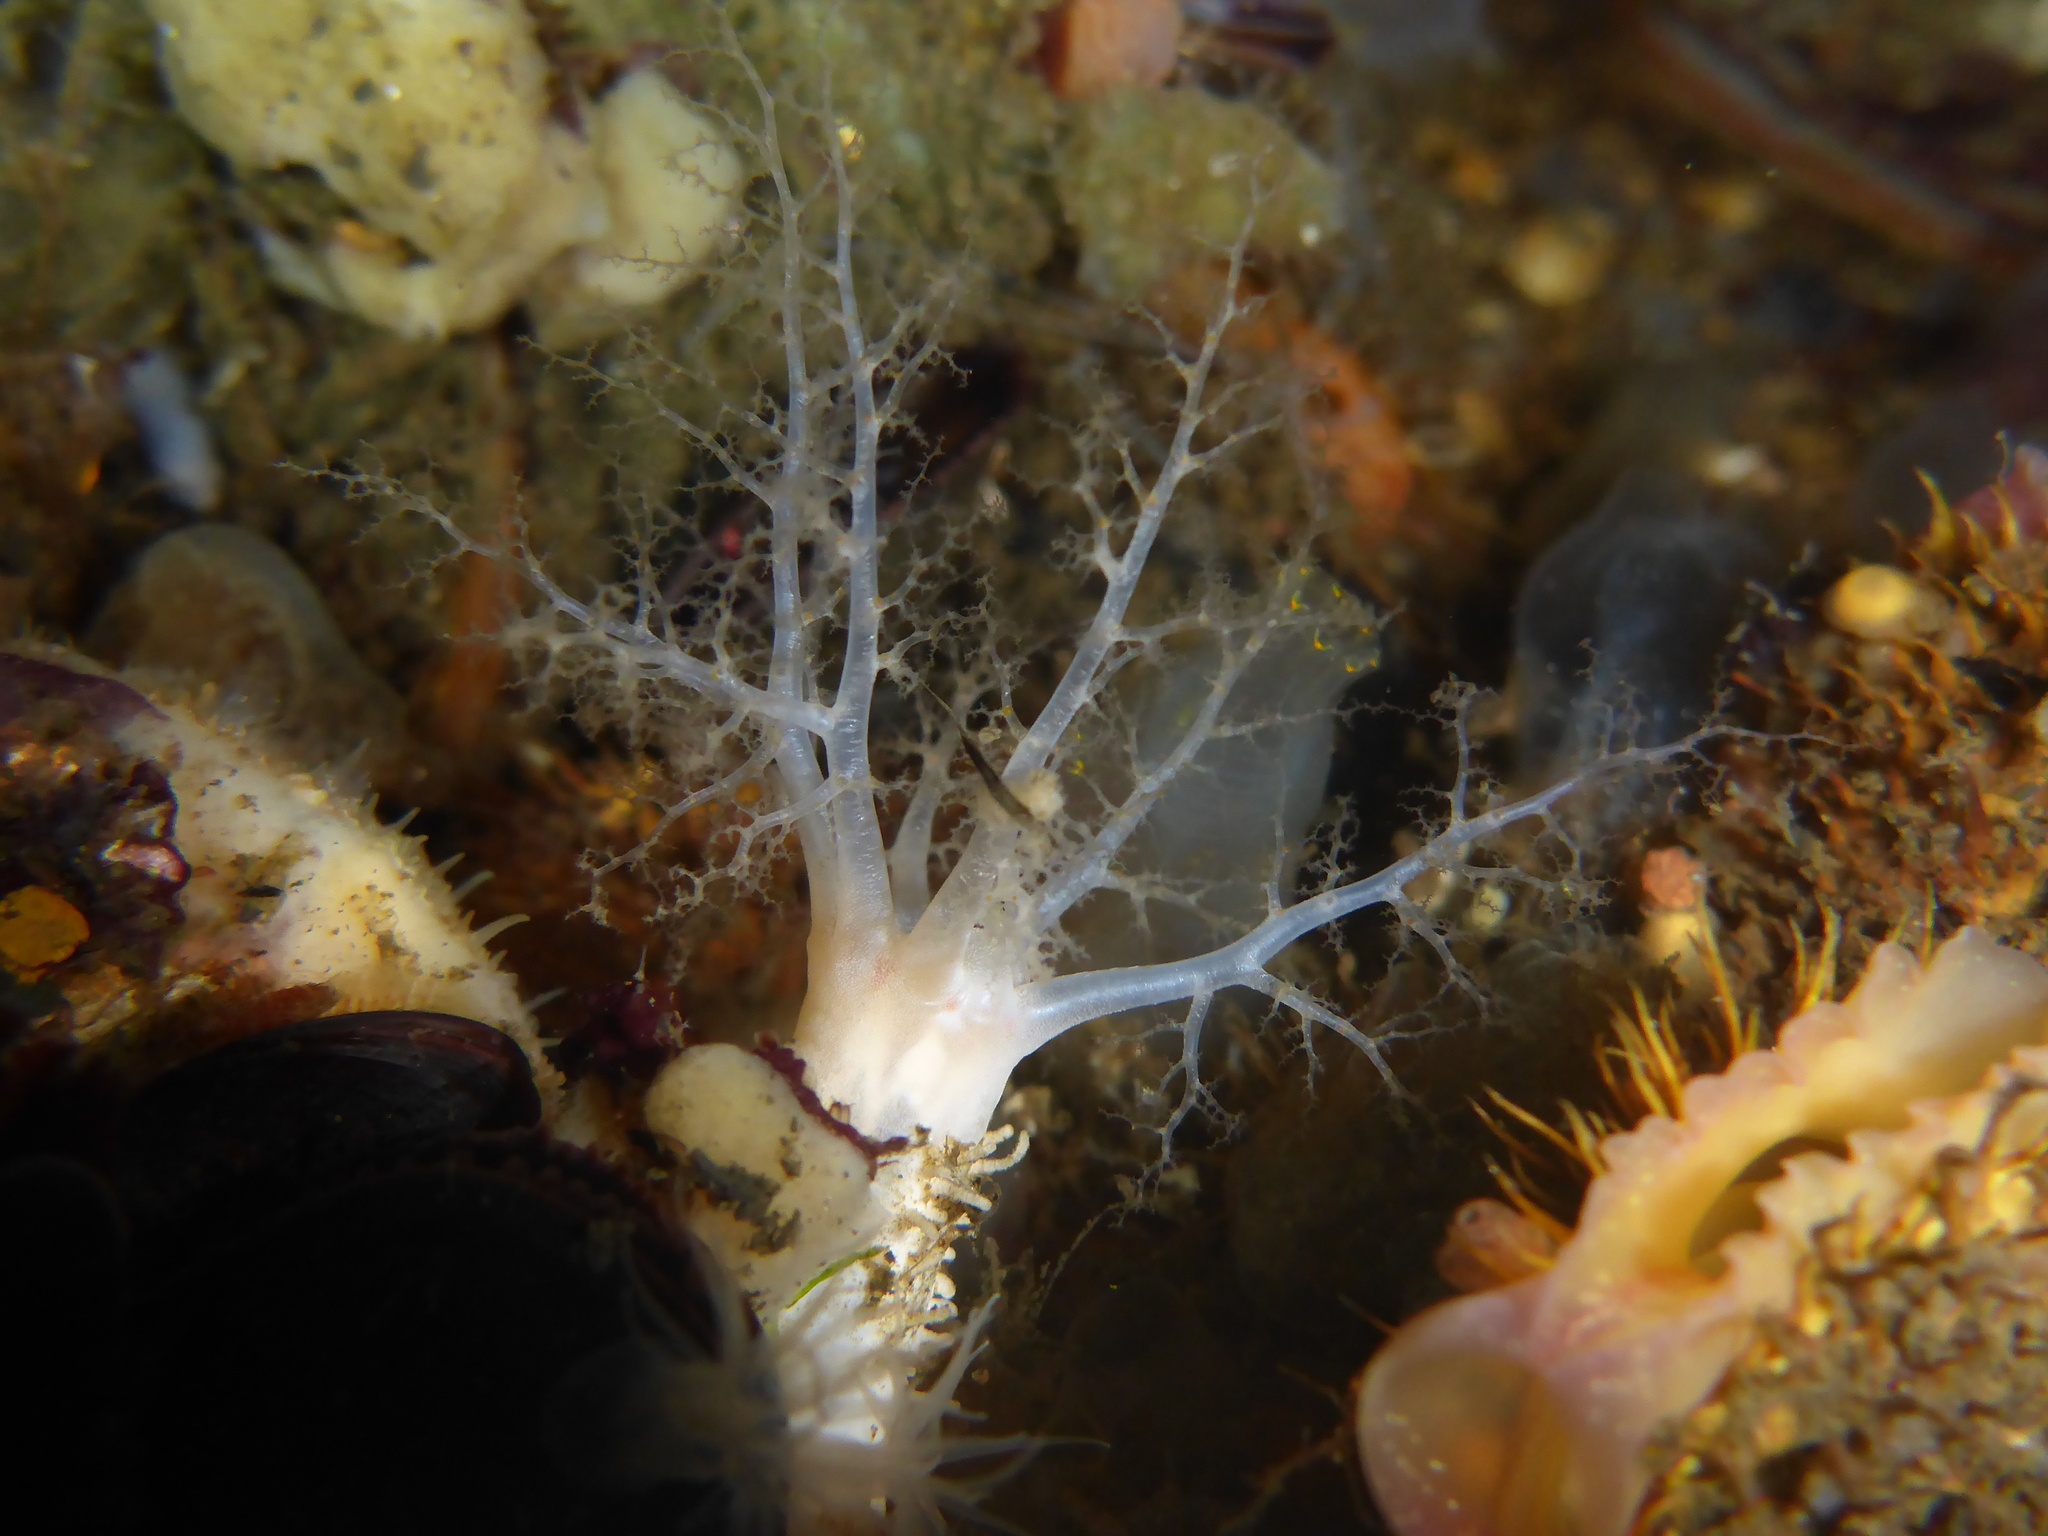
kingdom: Animalia
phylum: Echinodermata
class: Holothuroidea
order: Dendrochirotida
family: Sclerodactylidae
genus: Eupentacta
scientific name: Eupentacta quinquesemita
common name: Pentamerous sea cucumber
